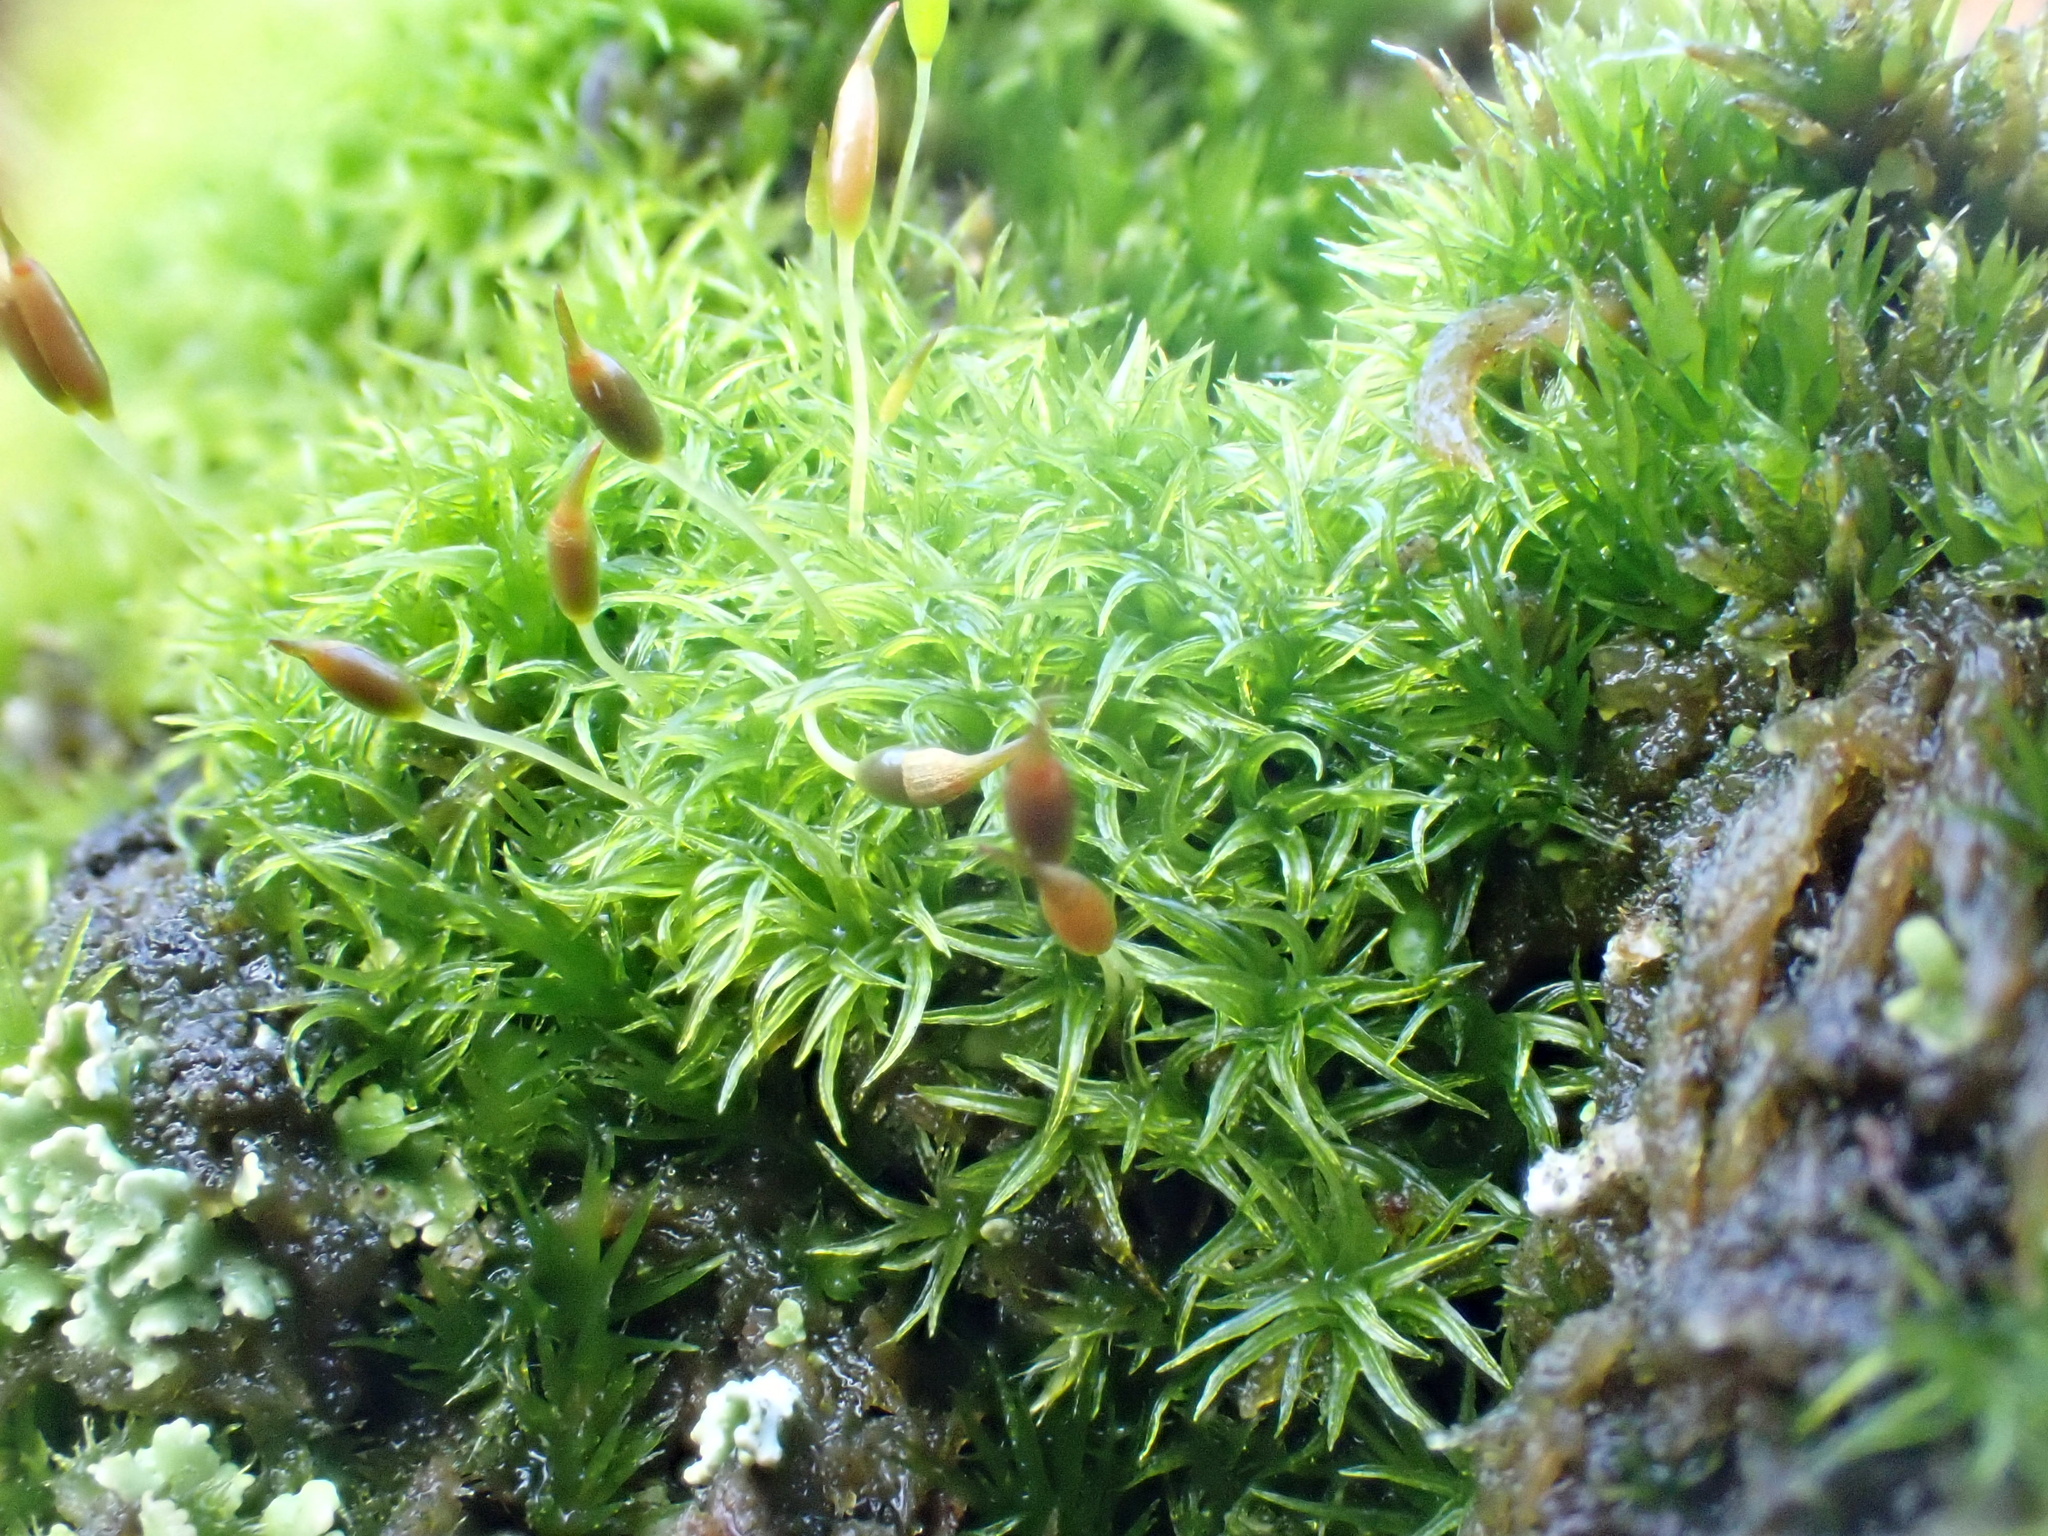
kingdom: Plantae
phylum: Bryophyta
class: Bryopsida
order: Dicranales
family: Rhabdoweisiaceae
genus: Dicranoweisia
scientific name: Dicranoweisia cirrata
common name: Common pincushion
